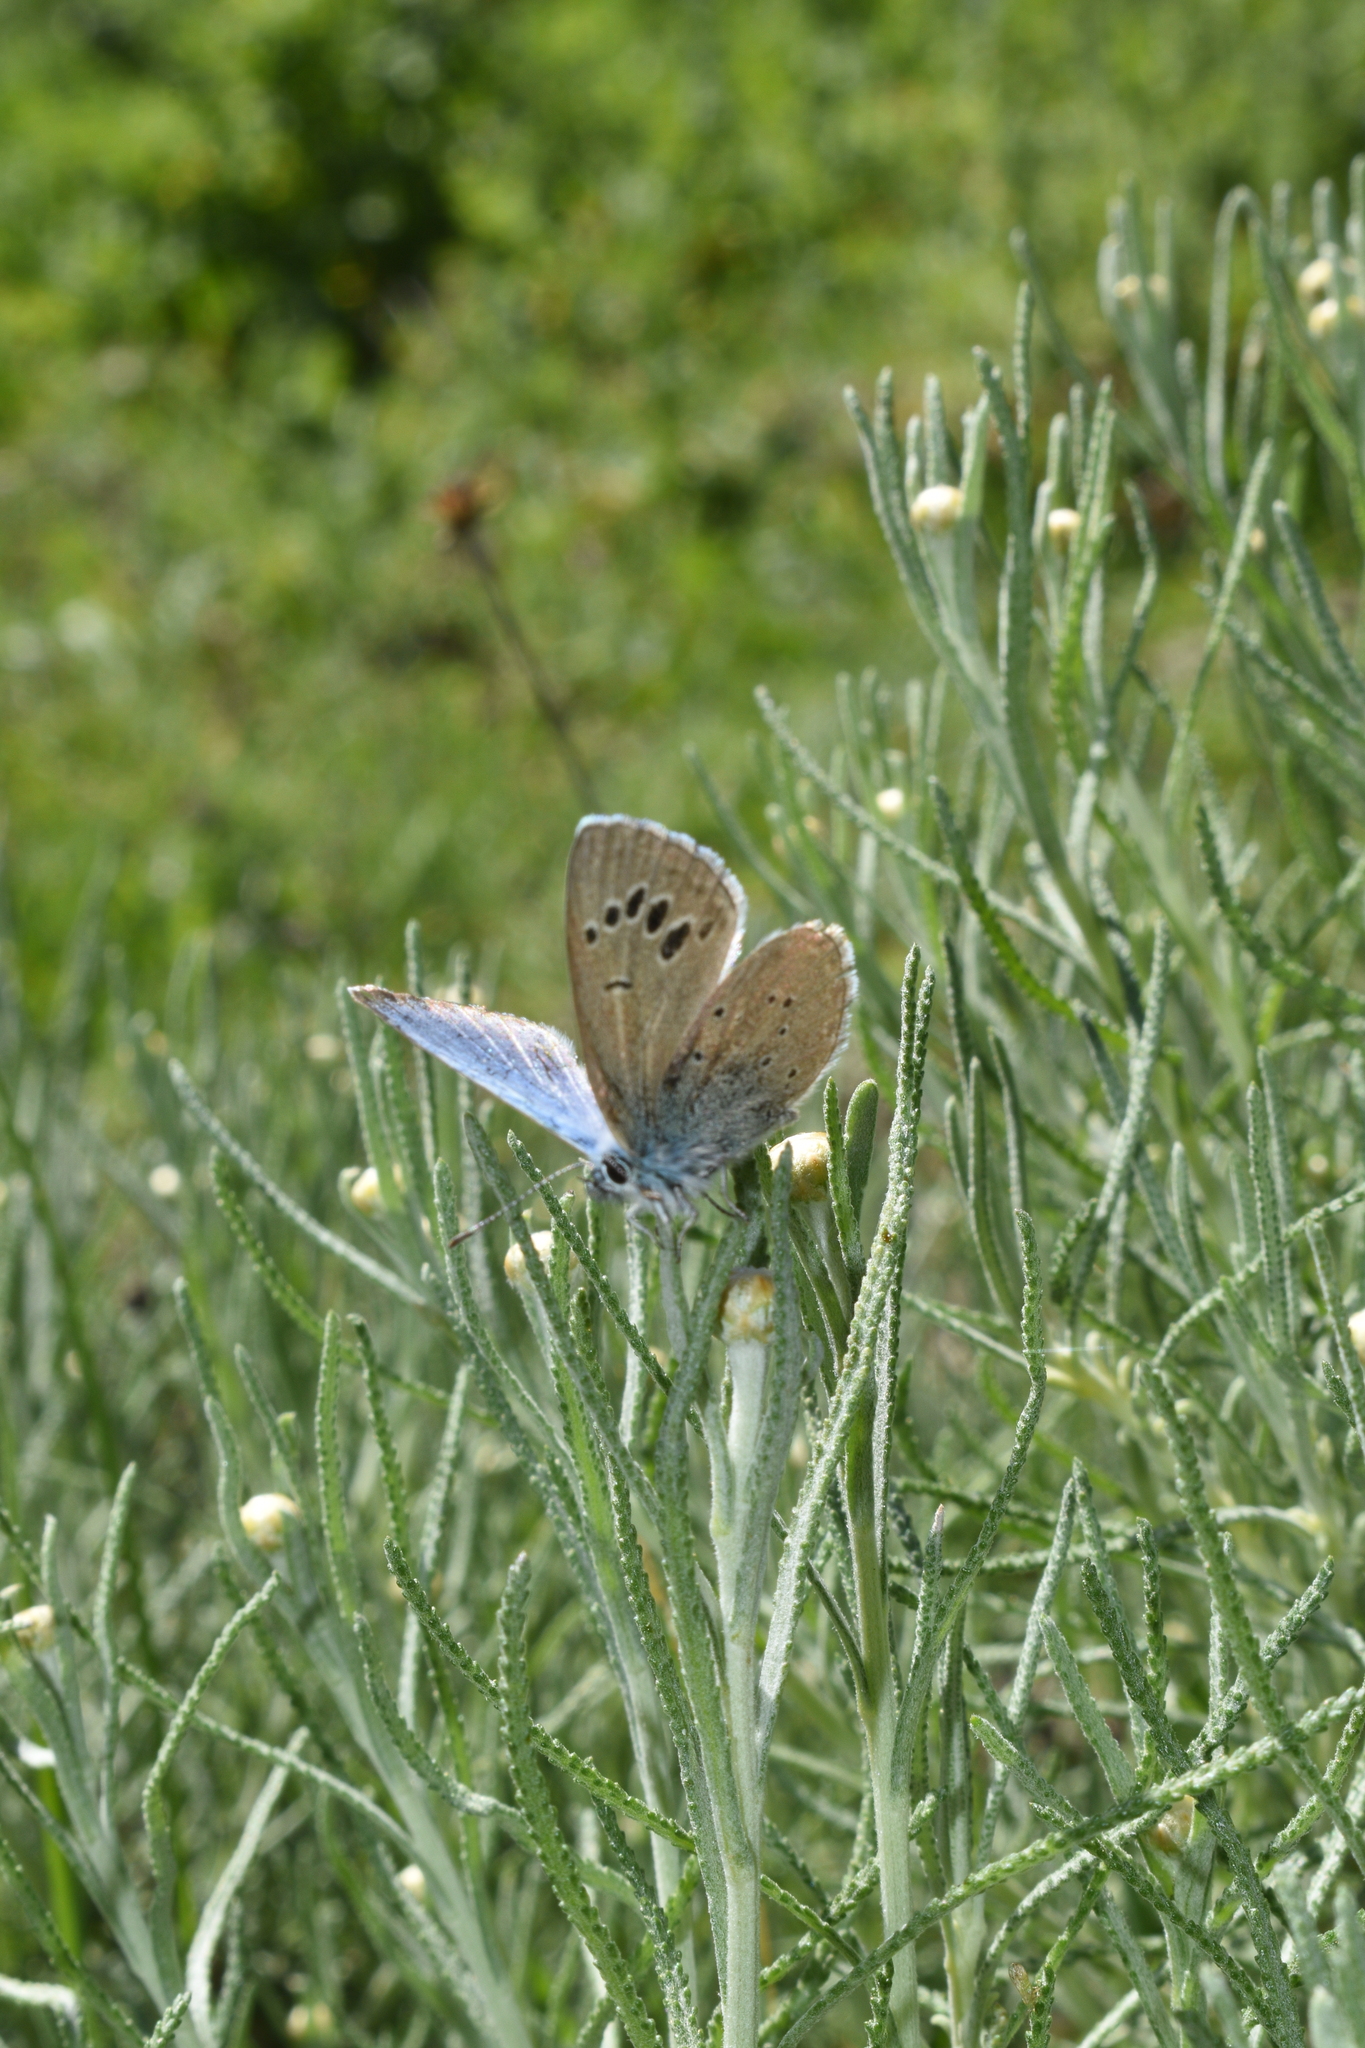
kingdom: Animalia
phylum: Arthropoda
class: Insecta
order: Lepidoptera
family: Lycaenidae
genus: Glaucopsyche
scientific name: Glaucopsyche melanops
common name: Black-eyed blue
